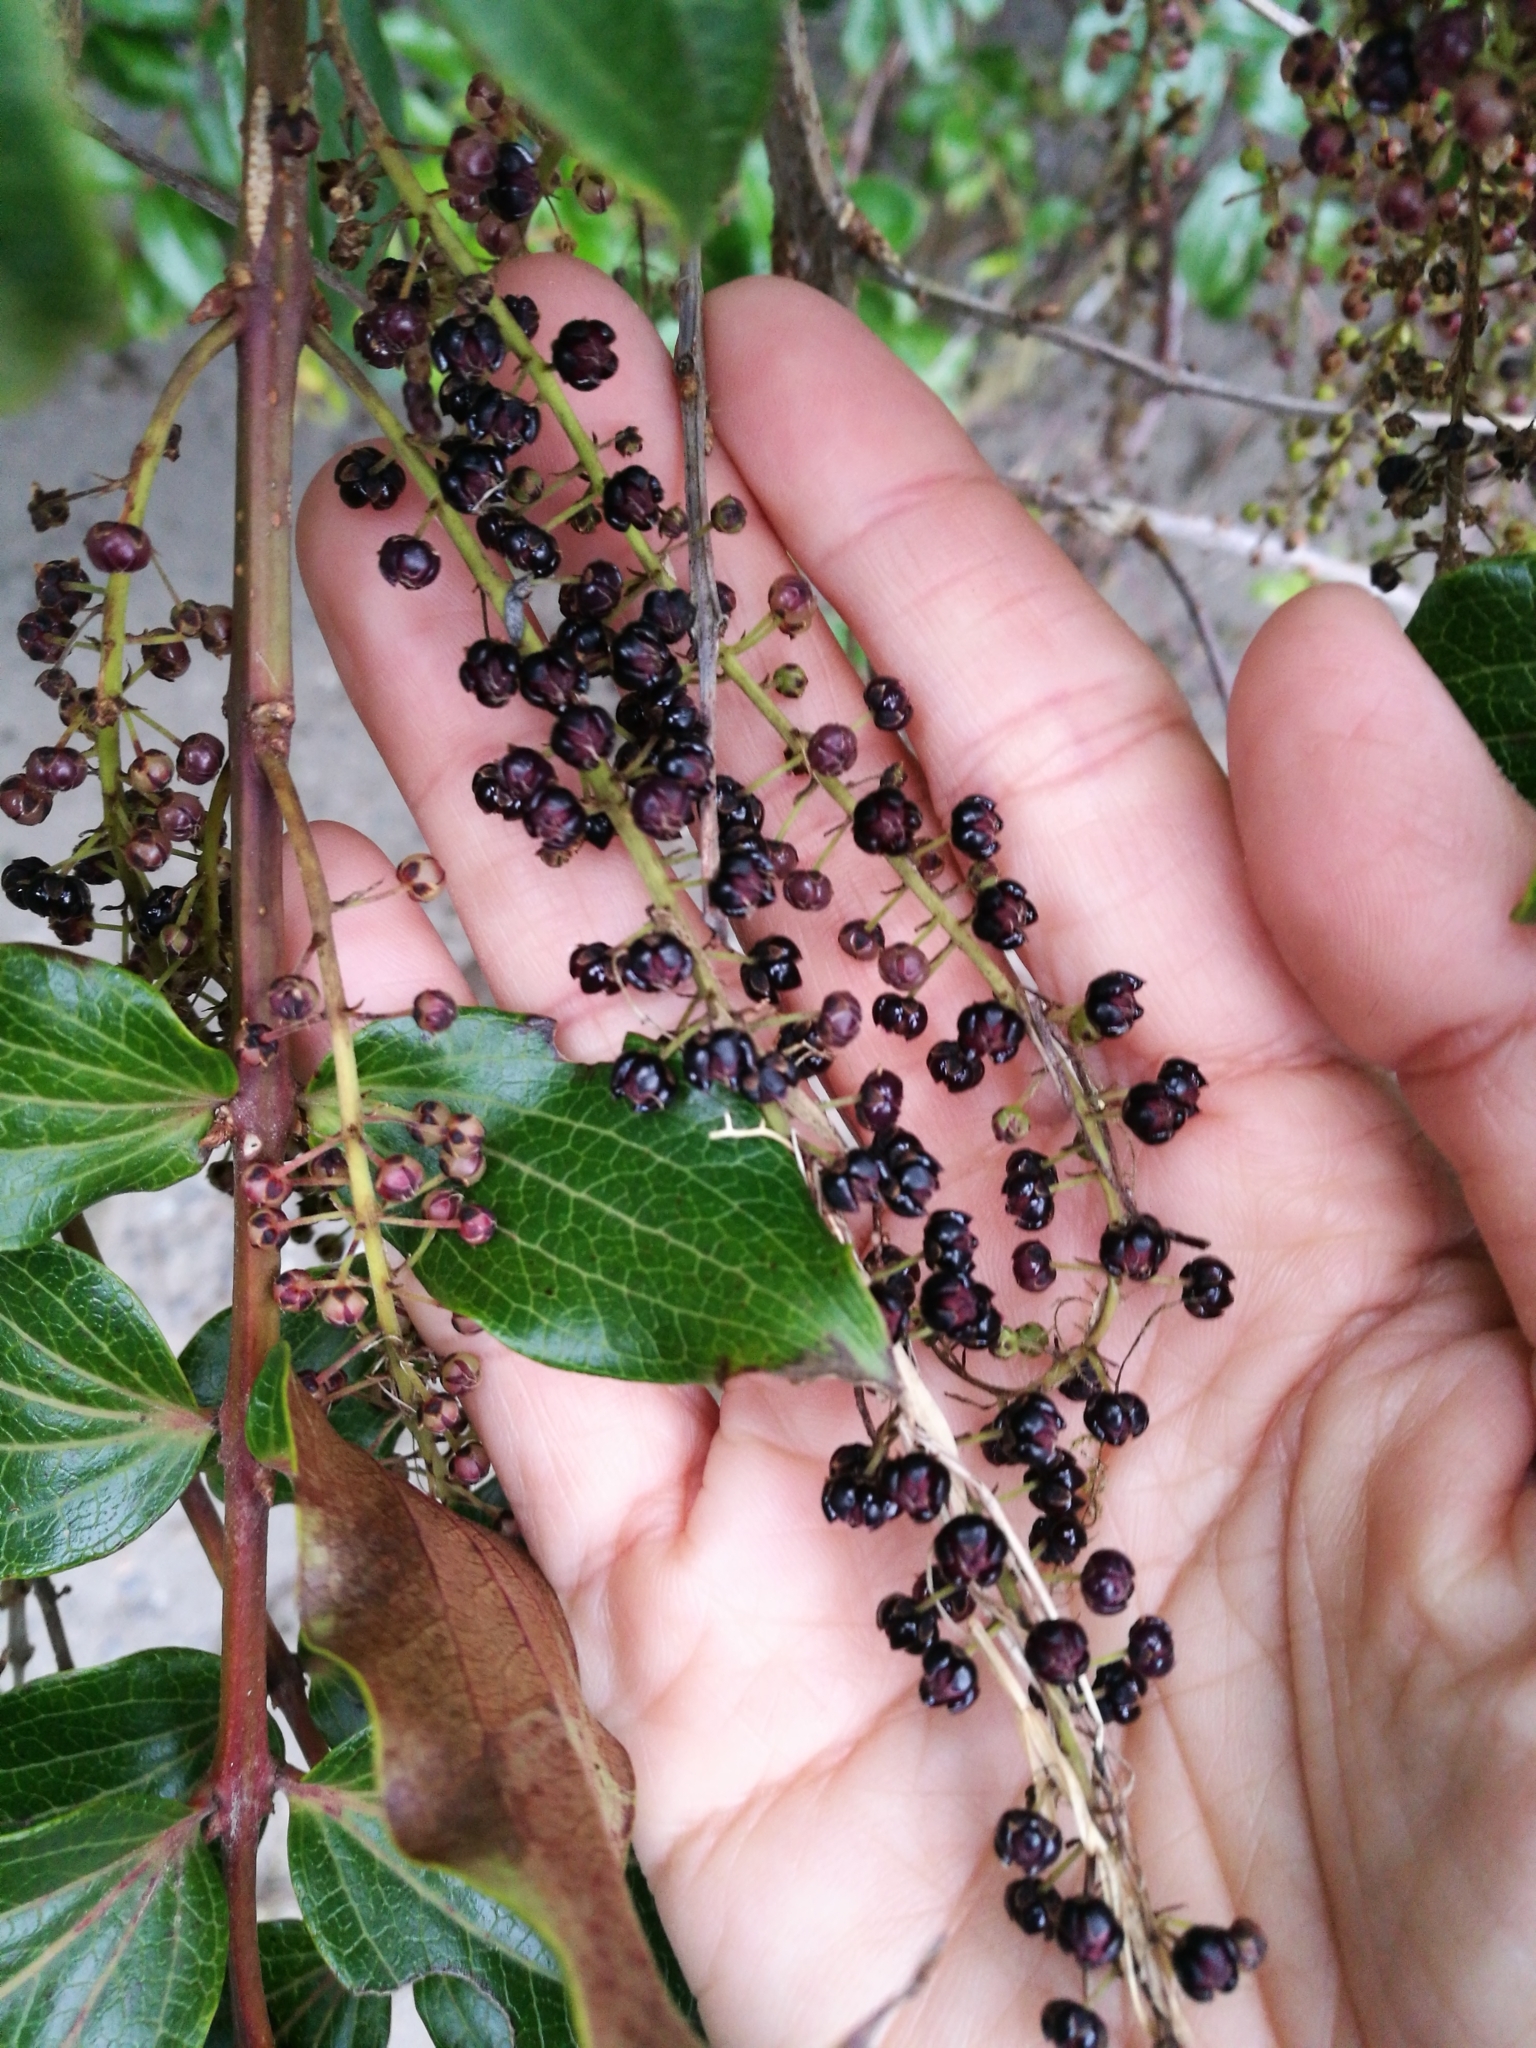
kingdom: Plantae
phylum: Tracheophyta
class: Magnoliopsida
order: Cucurbitales
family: Coriariaceae
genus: Coriaria
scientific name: Coriaria arborea
